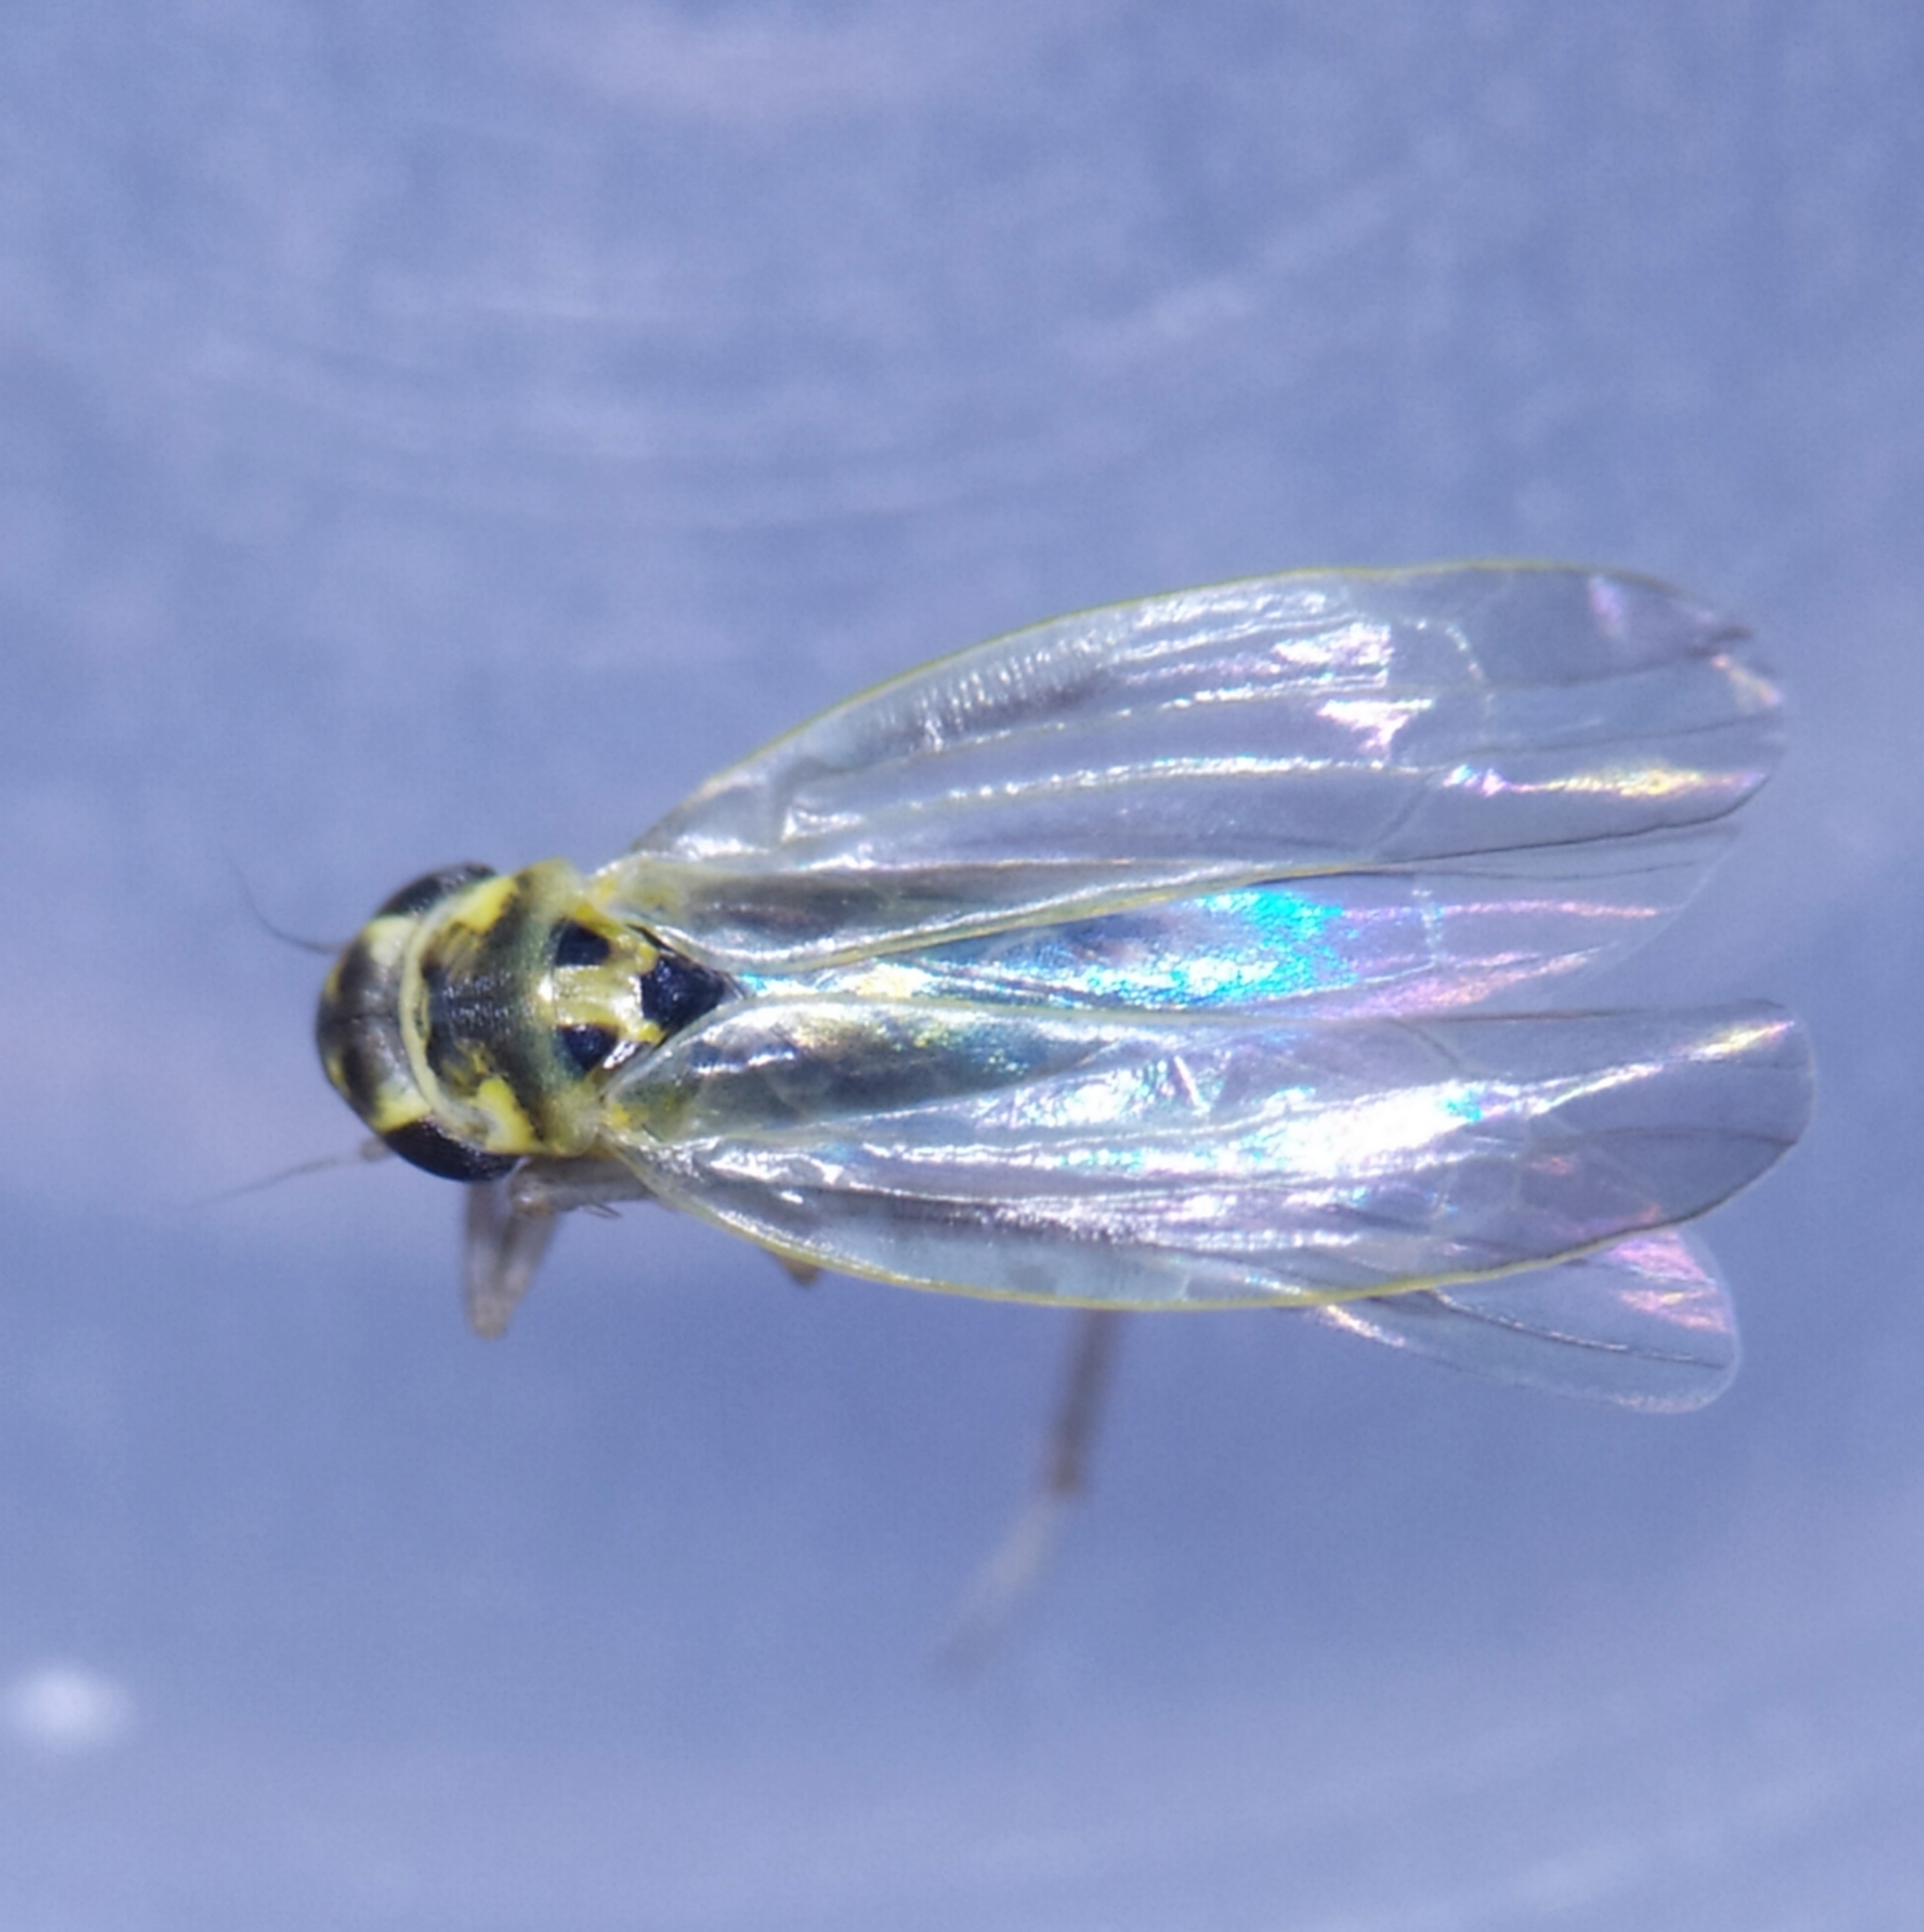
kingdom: Animalia
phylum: Arthropoda
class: Insecta
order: Hemiptera
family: Cicadellidae
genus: Zyginidia
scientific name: Zyginidia pullula
